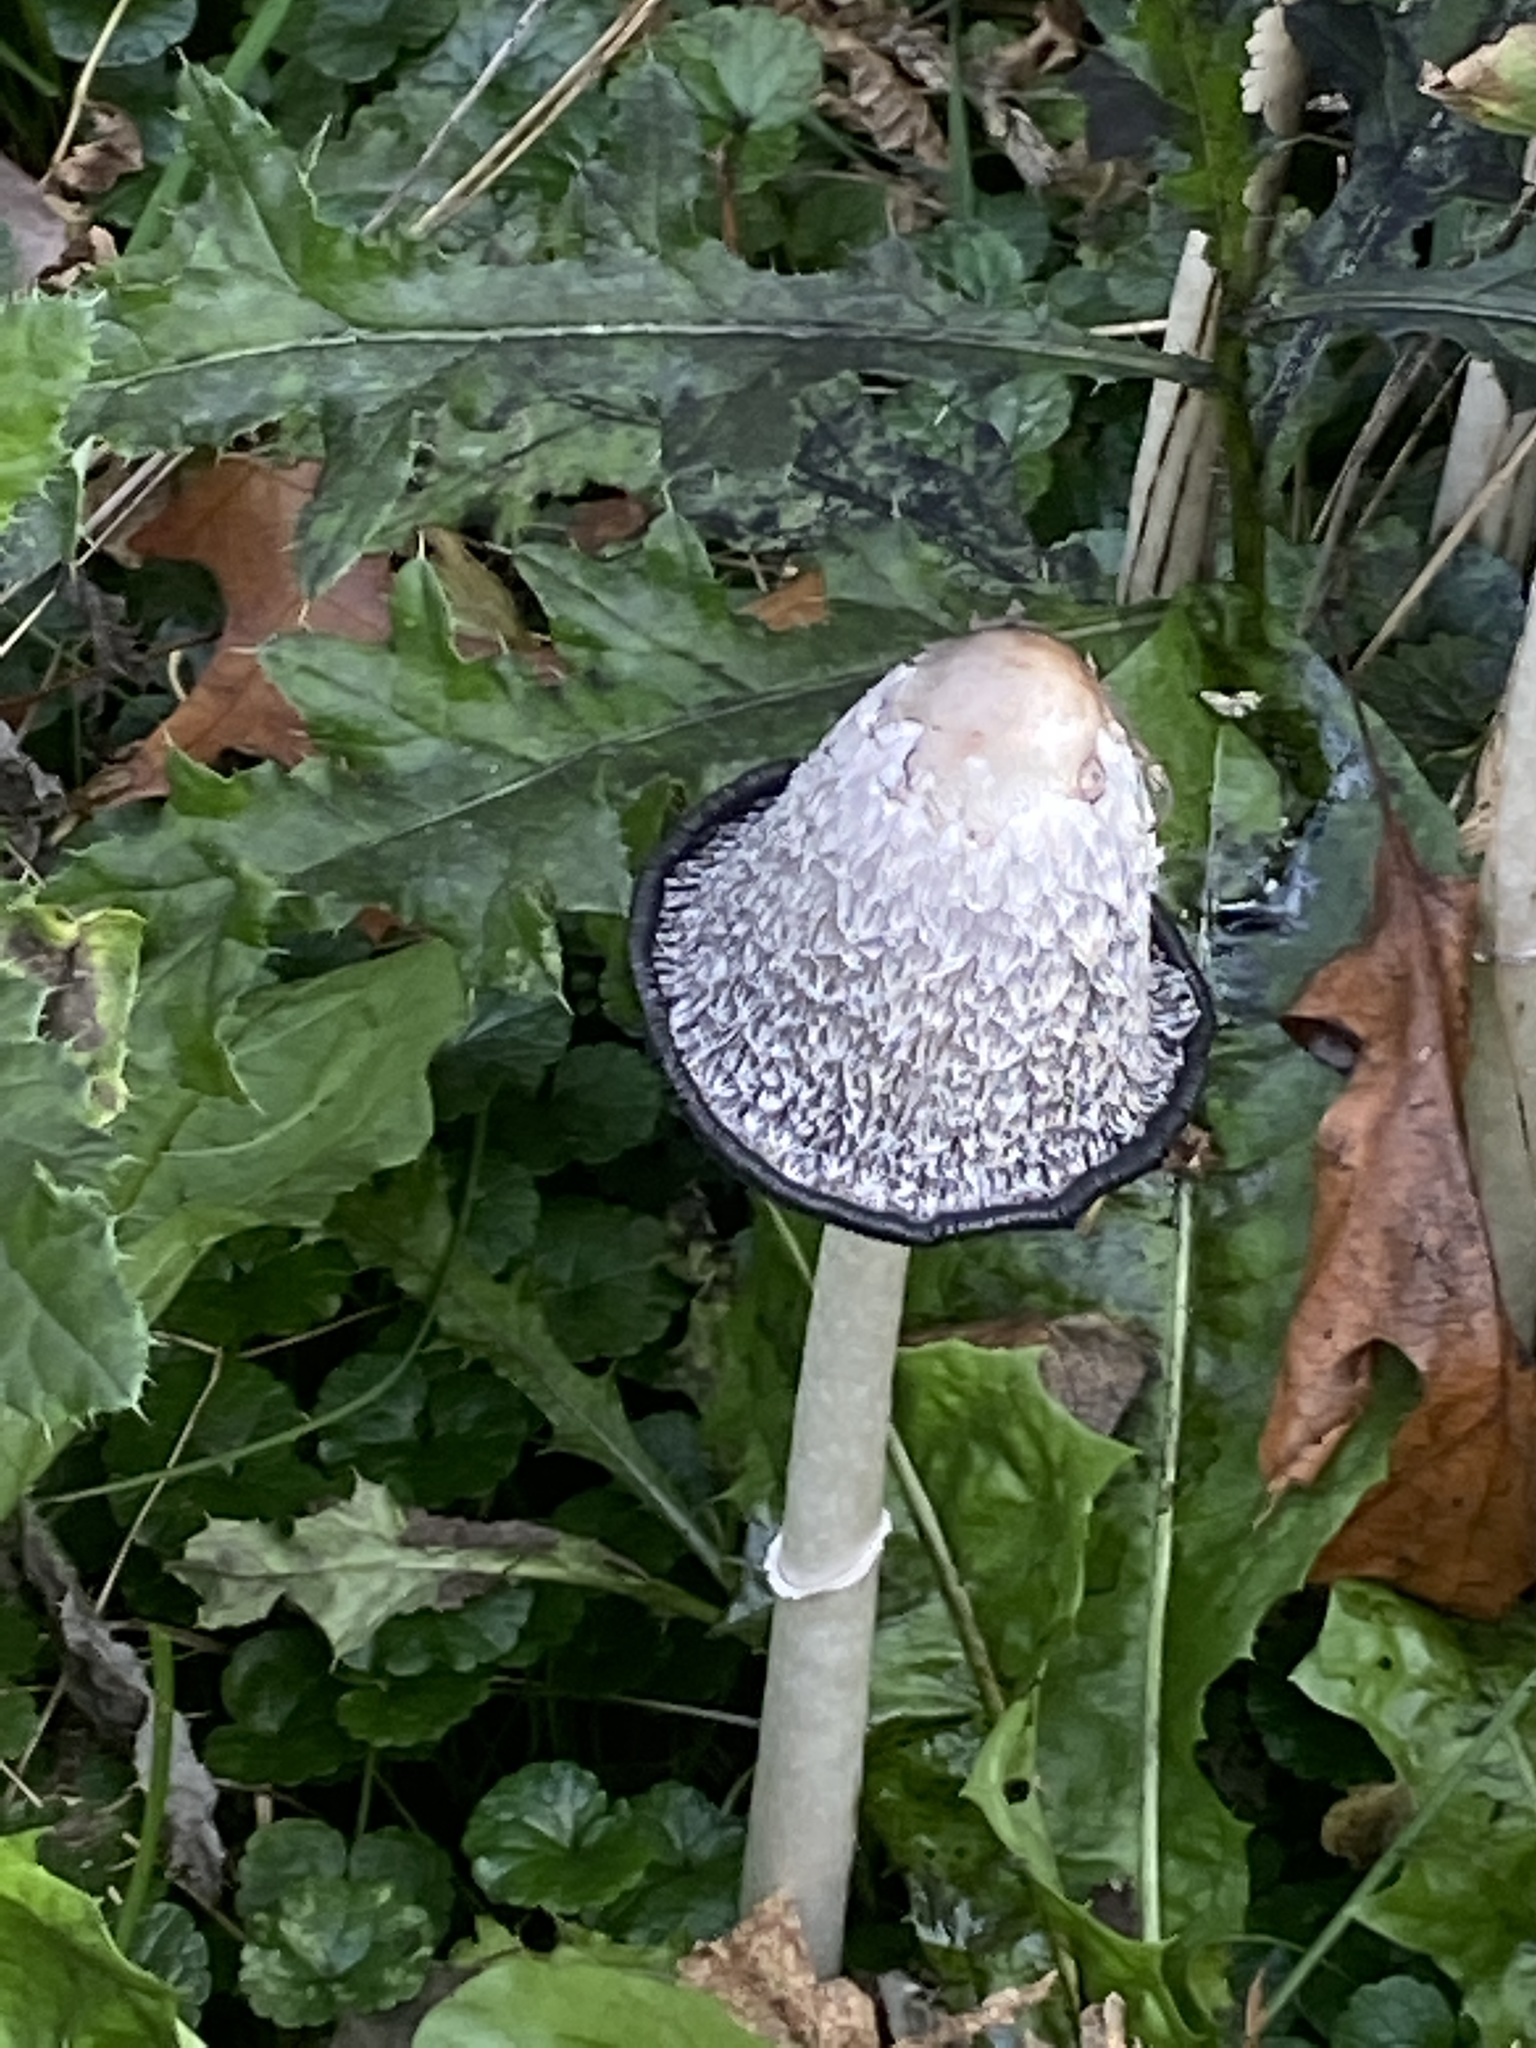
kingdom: Fungi
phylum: Basidiomycota
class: Agaricomycetes
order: Agaricales
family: Agaricaceae
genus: Coprinus
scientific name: Coprinus comatus
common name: Lawyer's wig
